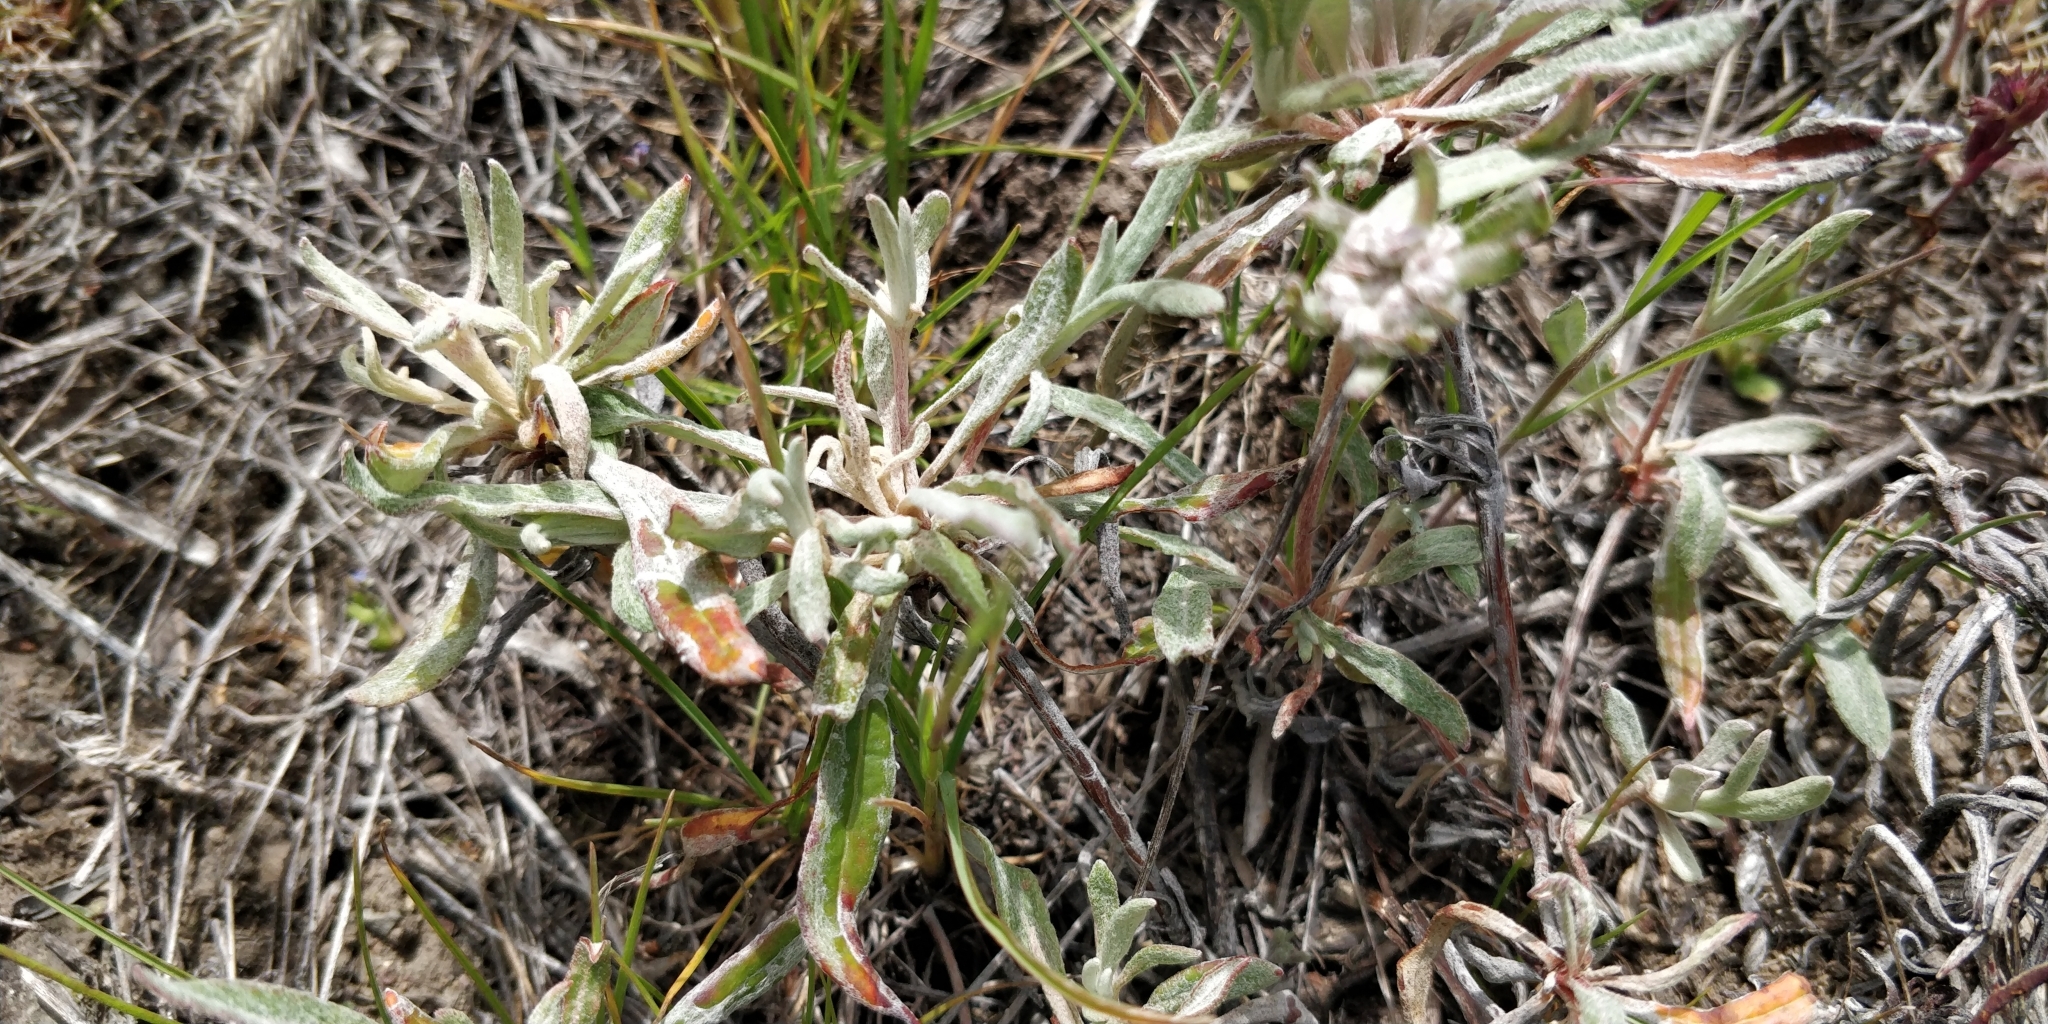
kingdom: Plantae
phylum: Tracheophyta
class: Magnoliopsida
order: Caryophyllales
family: Polygonaceae
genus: Eriogonum
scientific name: Eriogonum heracleoides
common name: Wyeth's buckwheat
